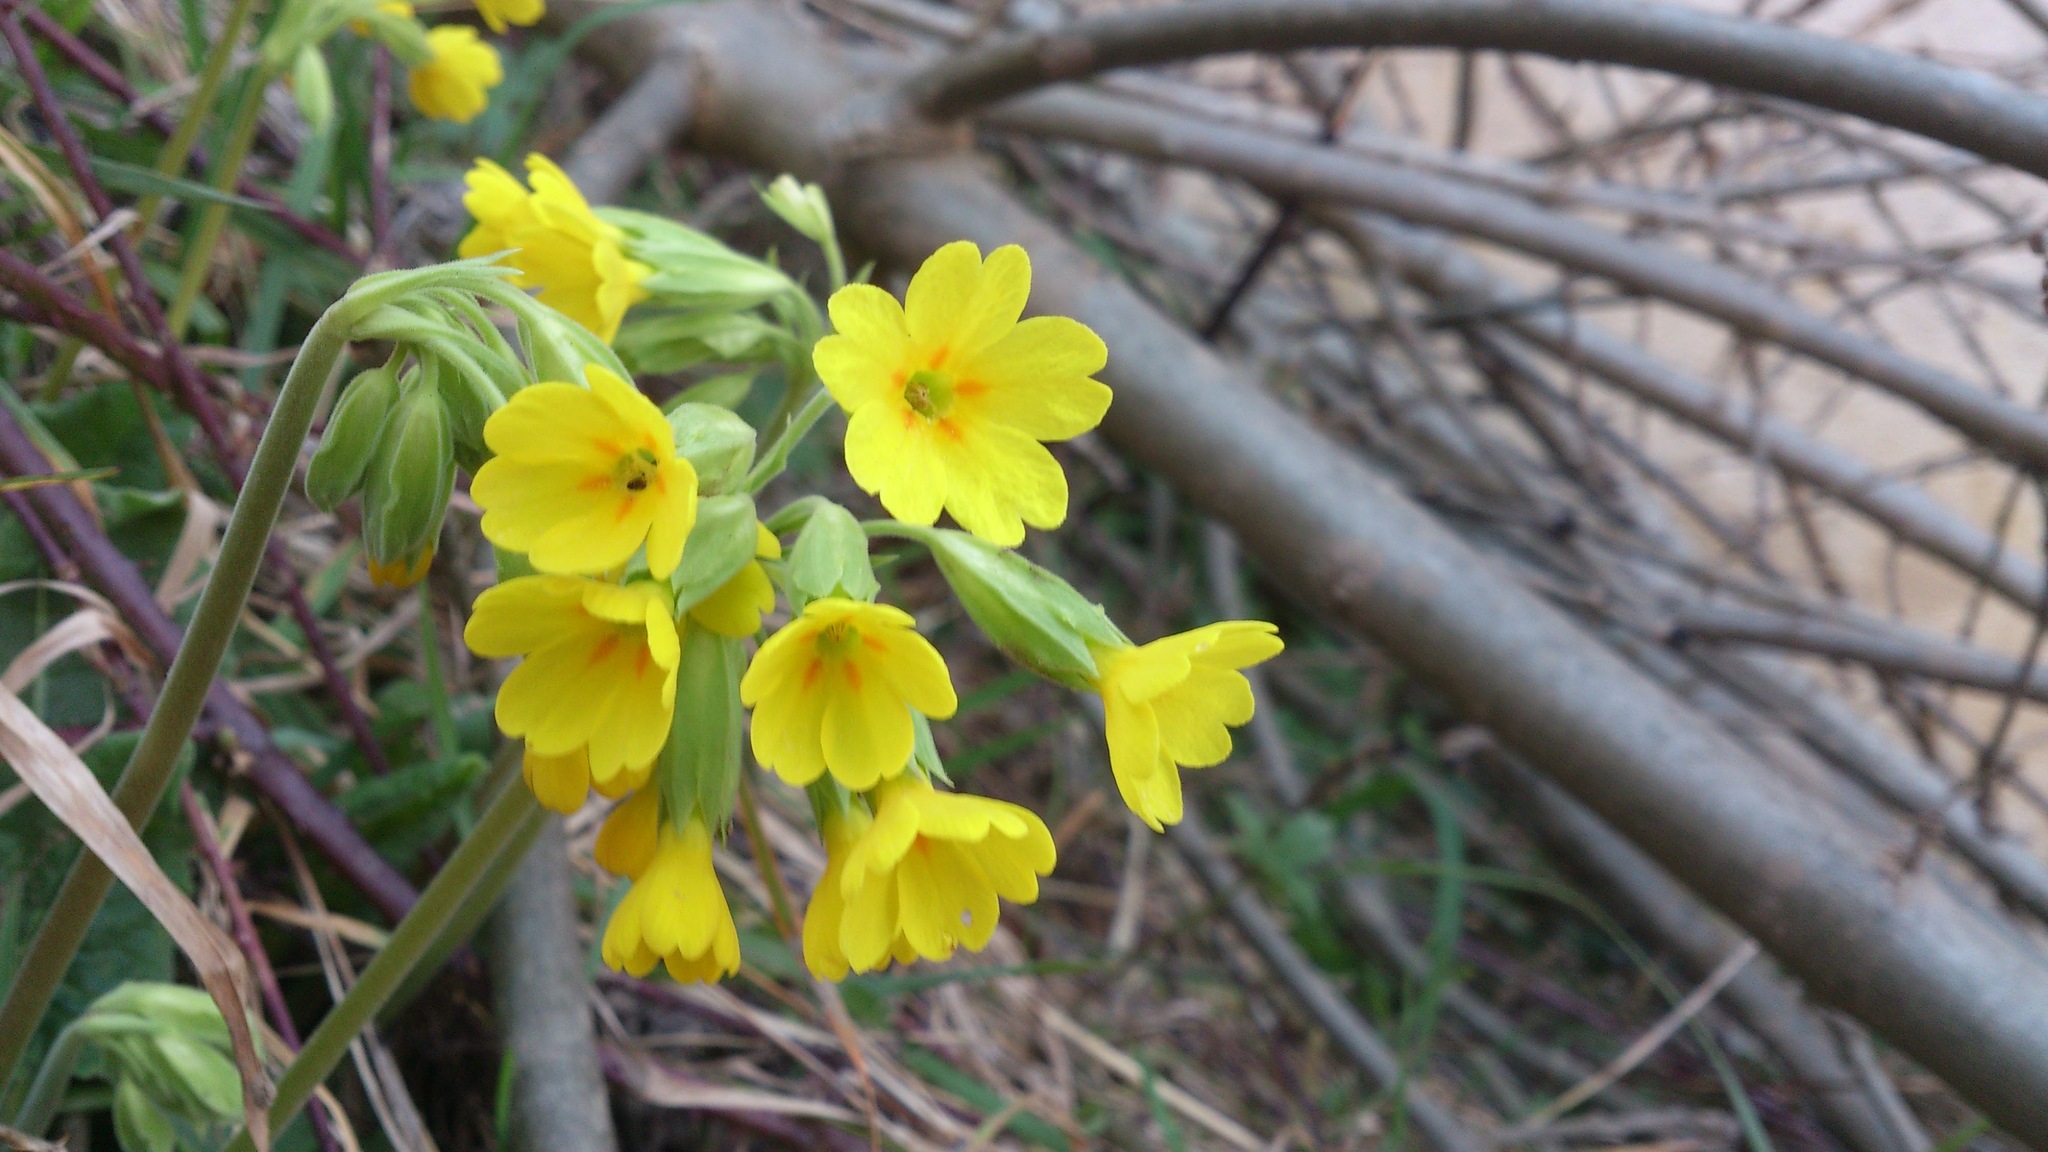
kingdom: Plantae
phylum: Tracheophyta
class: Magnoliopsida
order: Ericales
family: Primulaceae
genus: Primula
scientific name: Primula veris
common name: Cowslip
